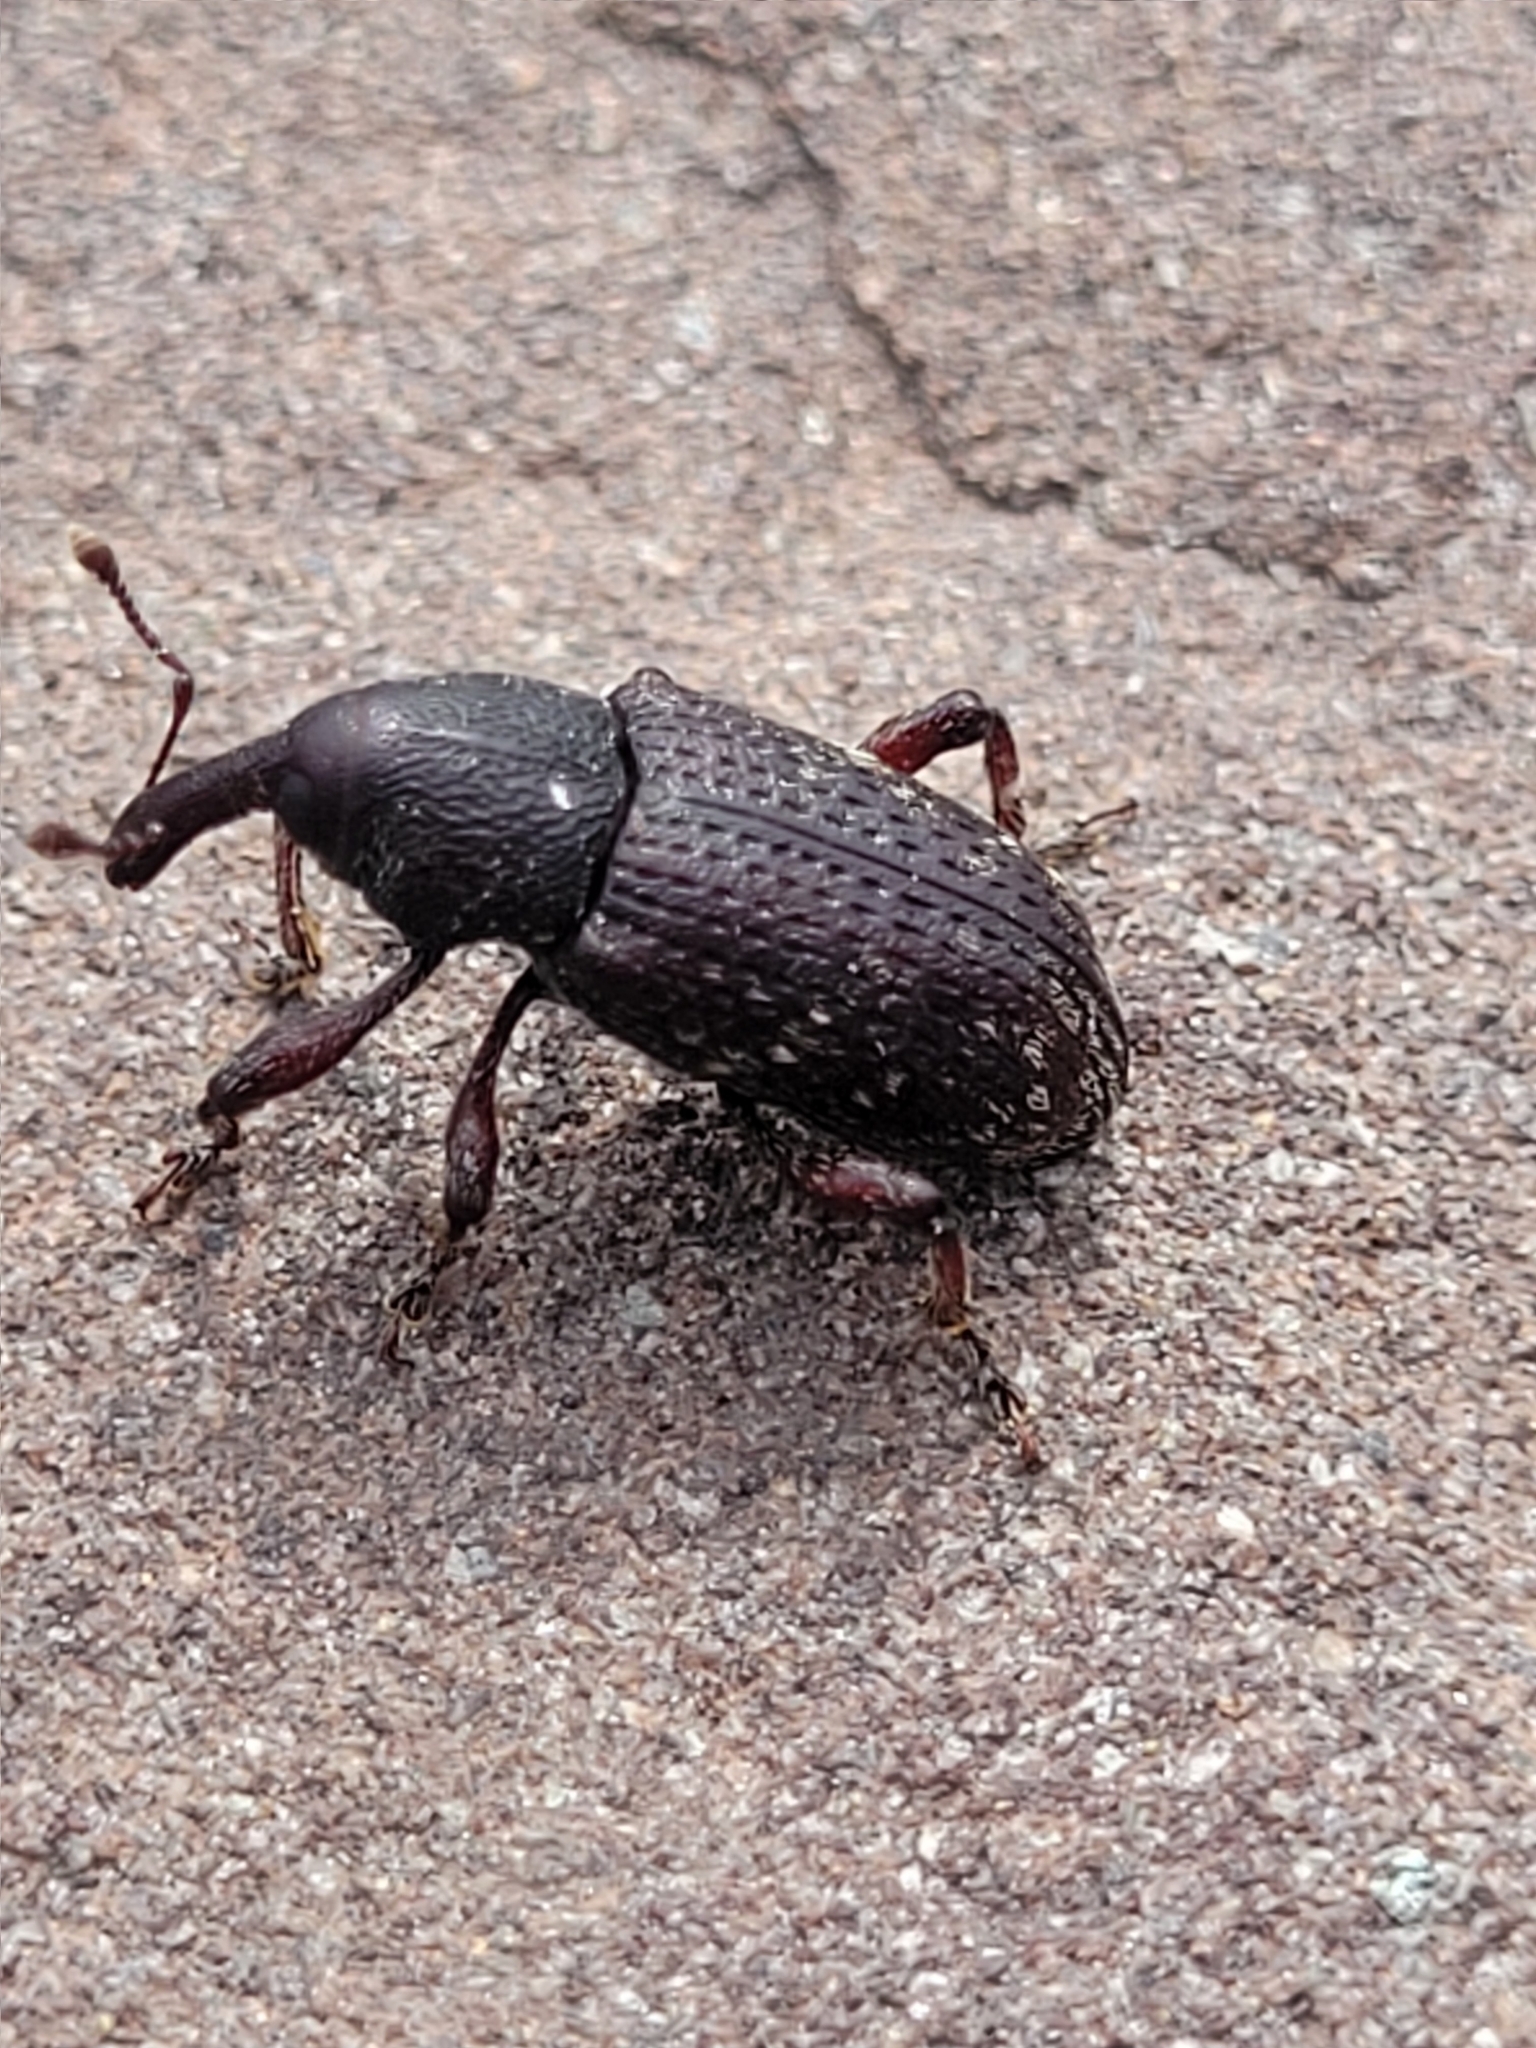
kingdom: Animalia
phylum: Arthropoda
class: Insecta
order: Coleoptera
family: Curculionidae
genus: Hylobius
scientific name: Hylobius congener
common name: Seedling debarking weevil
